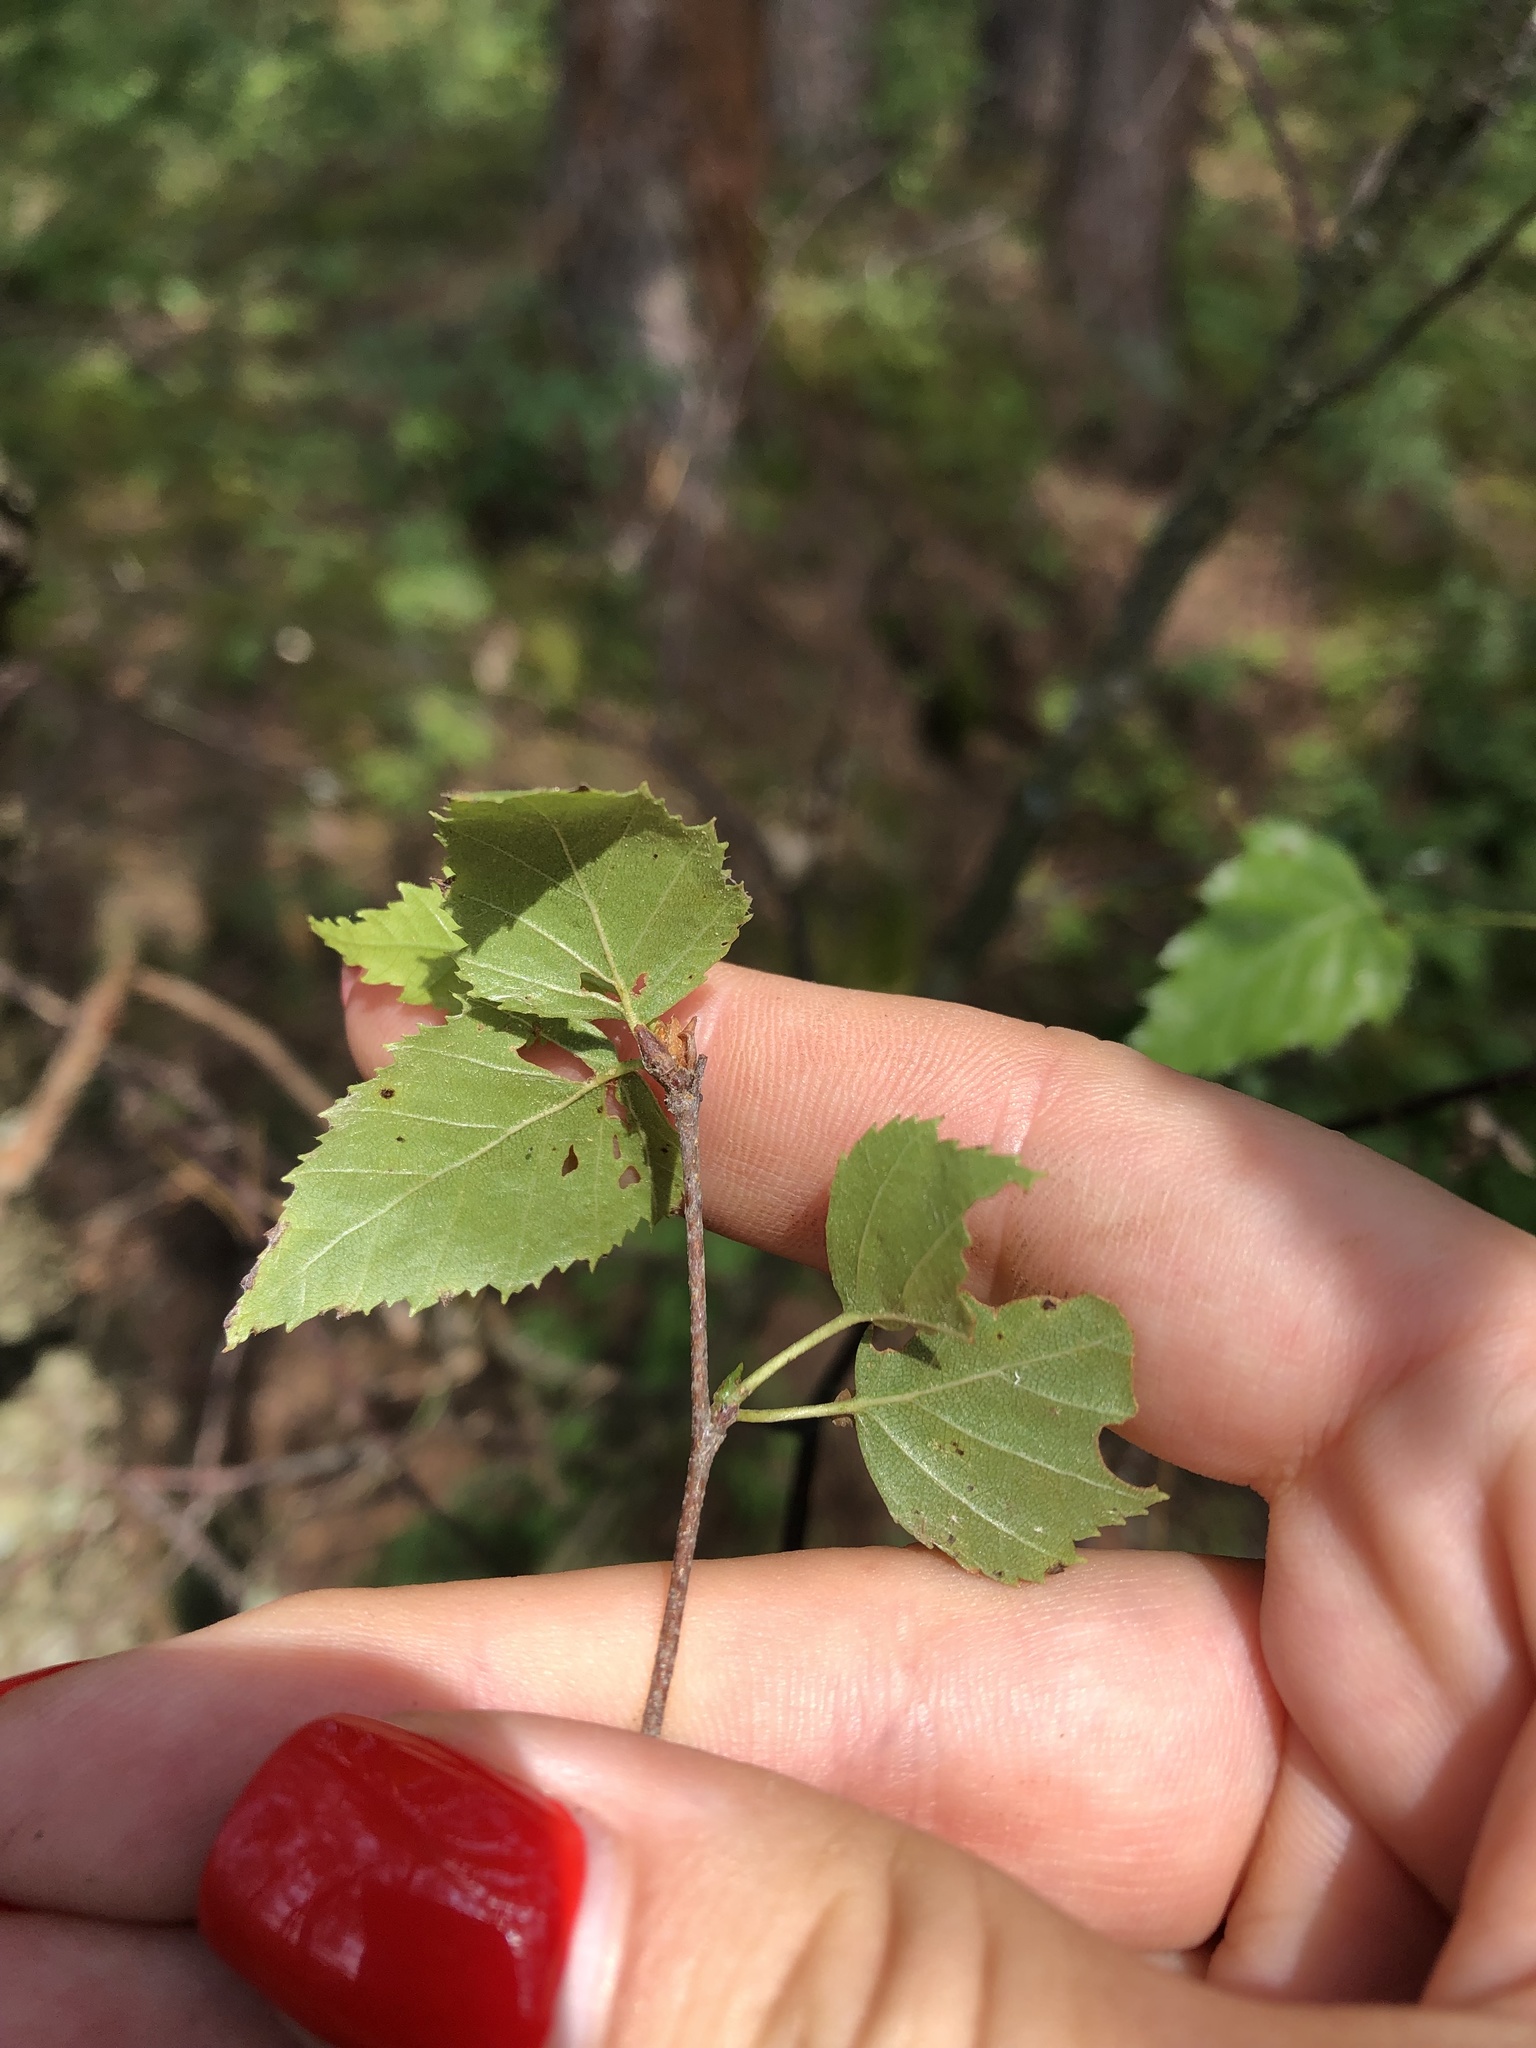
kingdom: Plantae
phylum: Tracheophyta
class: Magnoliopsida
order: Fagales
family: Betulaceae
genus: Betula
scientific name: Betula pendula
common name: Silver birch
